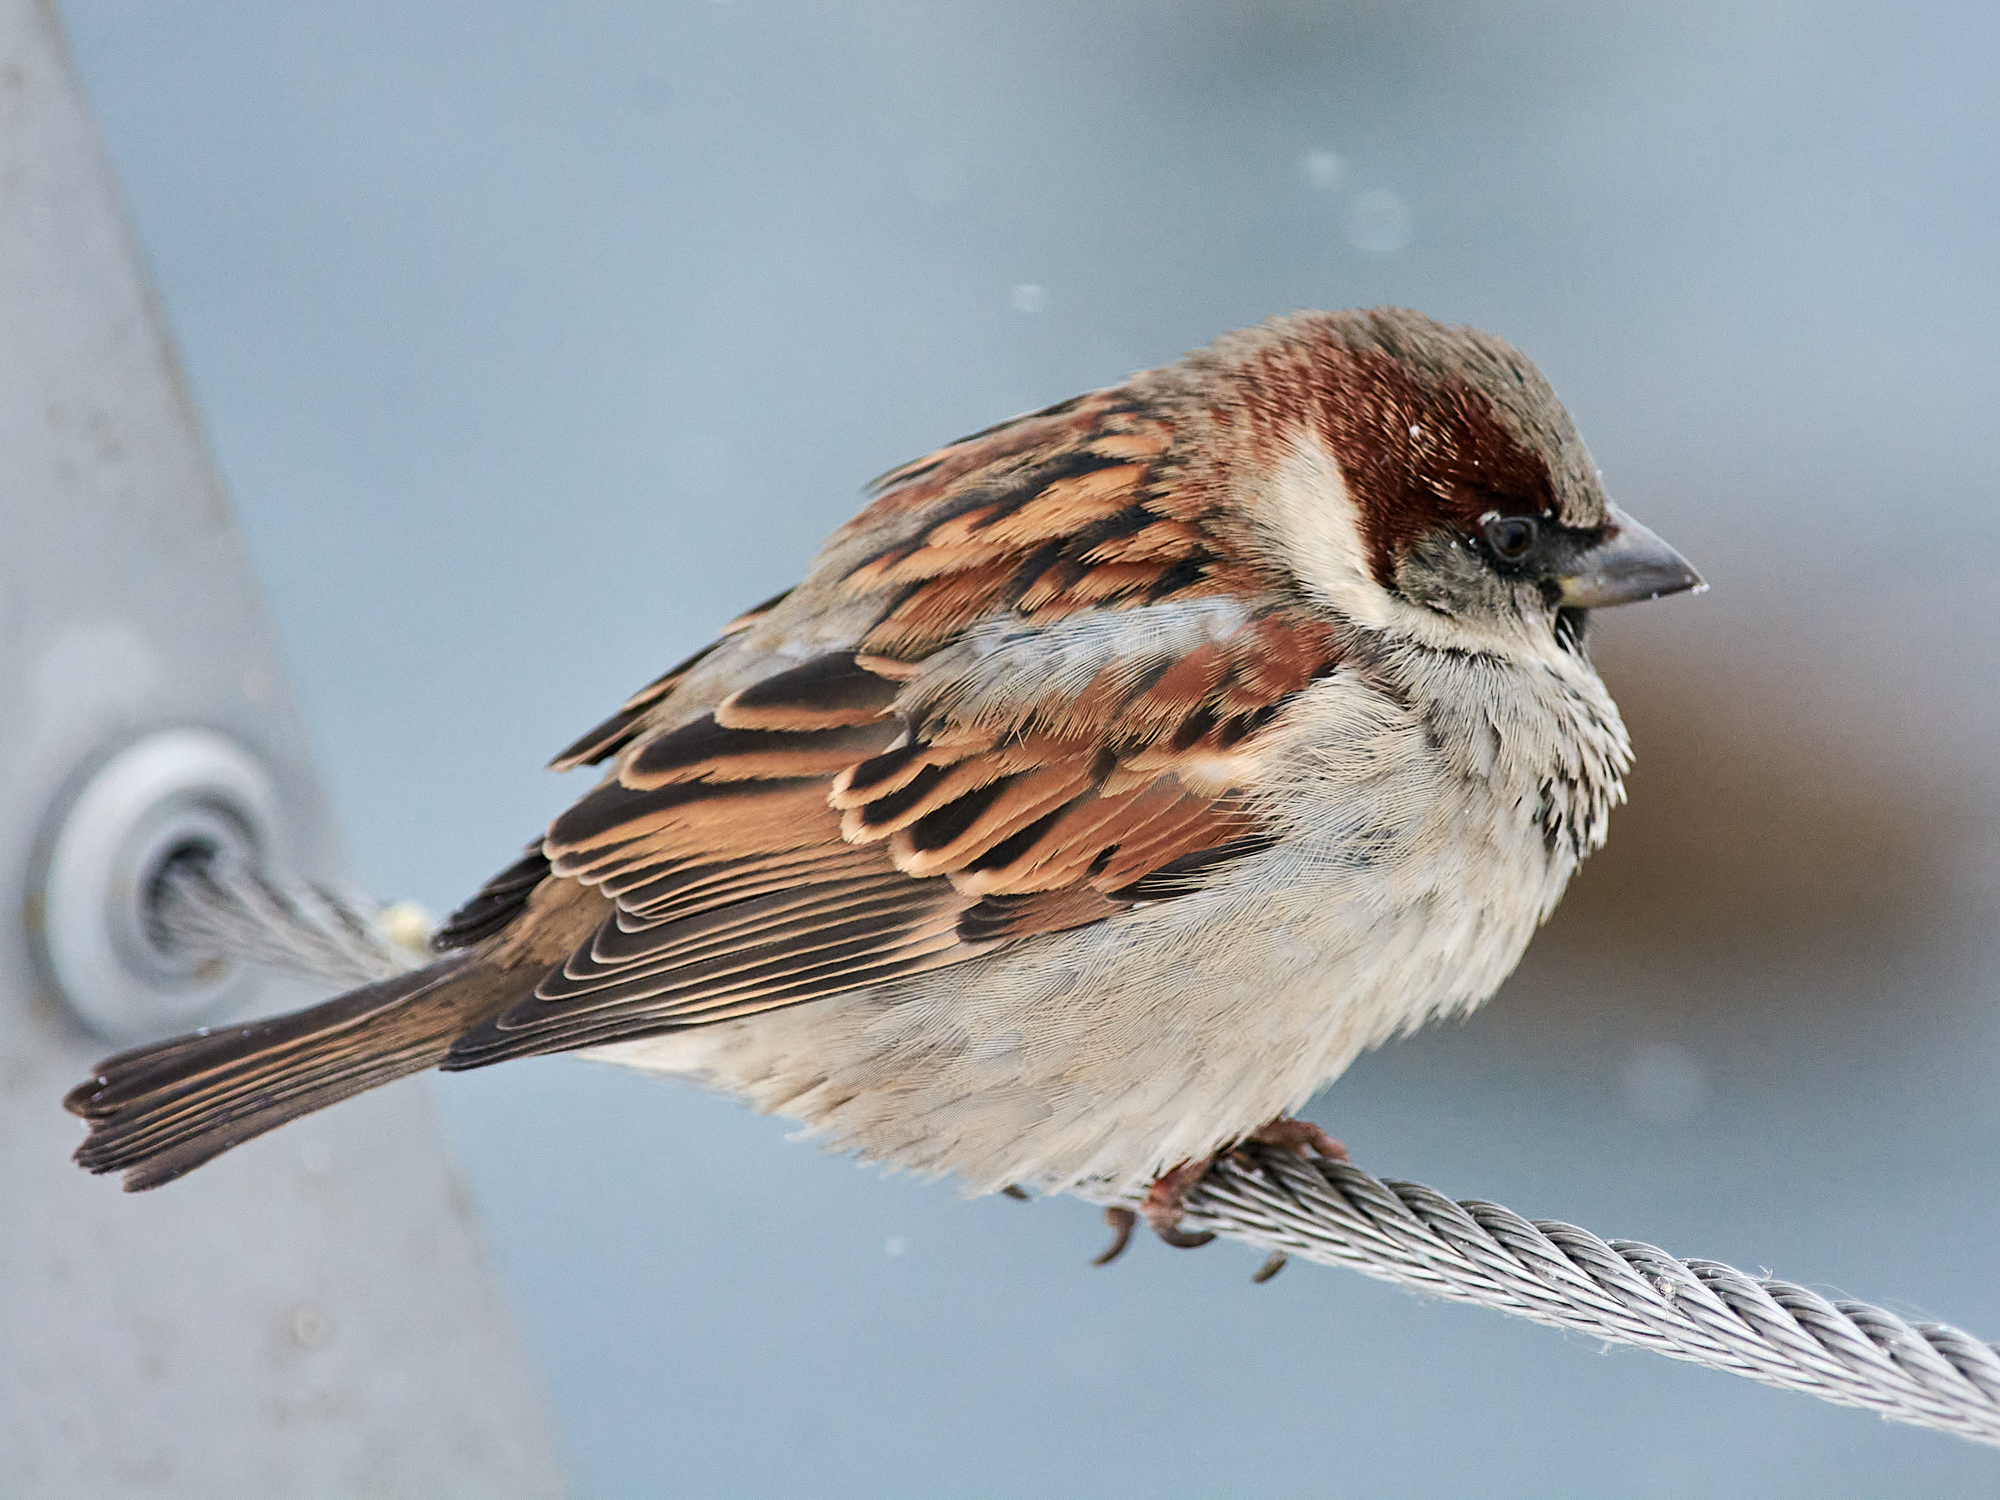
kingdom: Animalia
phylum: Chordata
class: Aves
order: Passeriformes
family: Passeridae
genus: Passer
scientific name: Passer domesticus
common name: House sparrow
